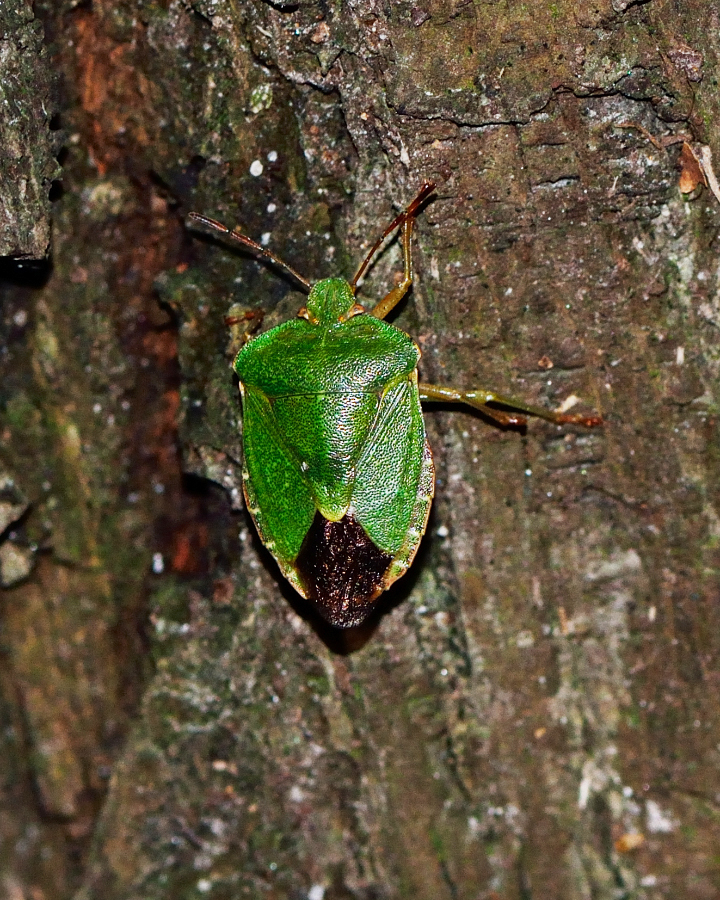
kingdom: Animalia
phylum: Arthropoda
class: Insecta
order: Hemiptera
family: Pentatomidae
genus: Palomena
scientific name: Palomena prasina
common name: Green shieldbug
